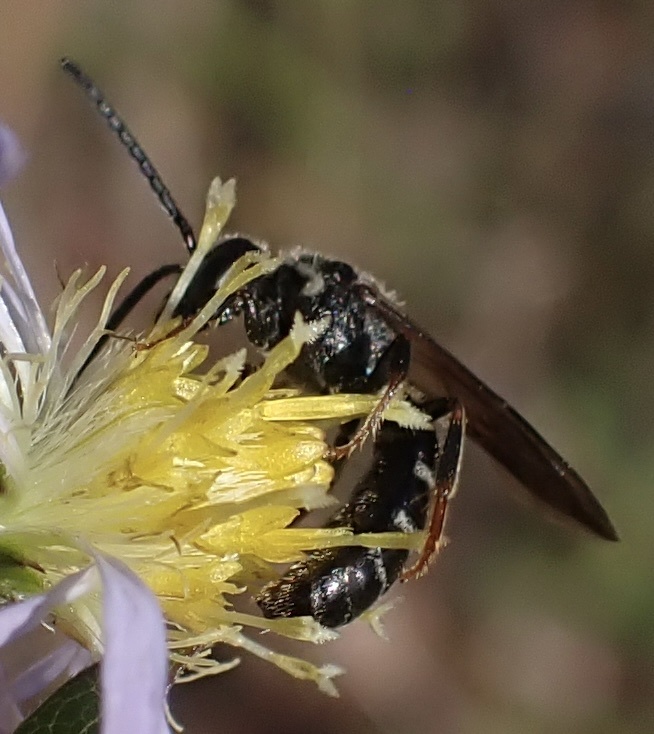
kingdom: Animalia
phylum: Arthropoda
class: Insecta
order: Hymenoptera
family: Halictidae
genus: Lasioglossum
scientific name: Lasioglossum fuscipenne
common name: Brown-winged sweat bee
